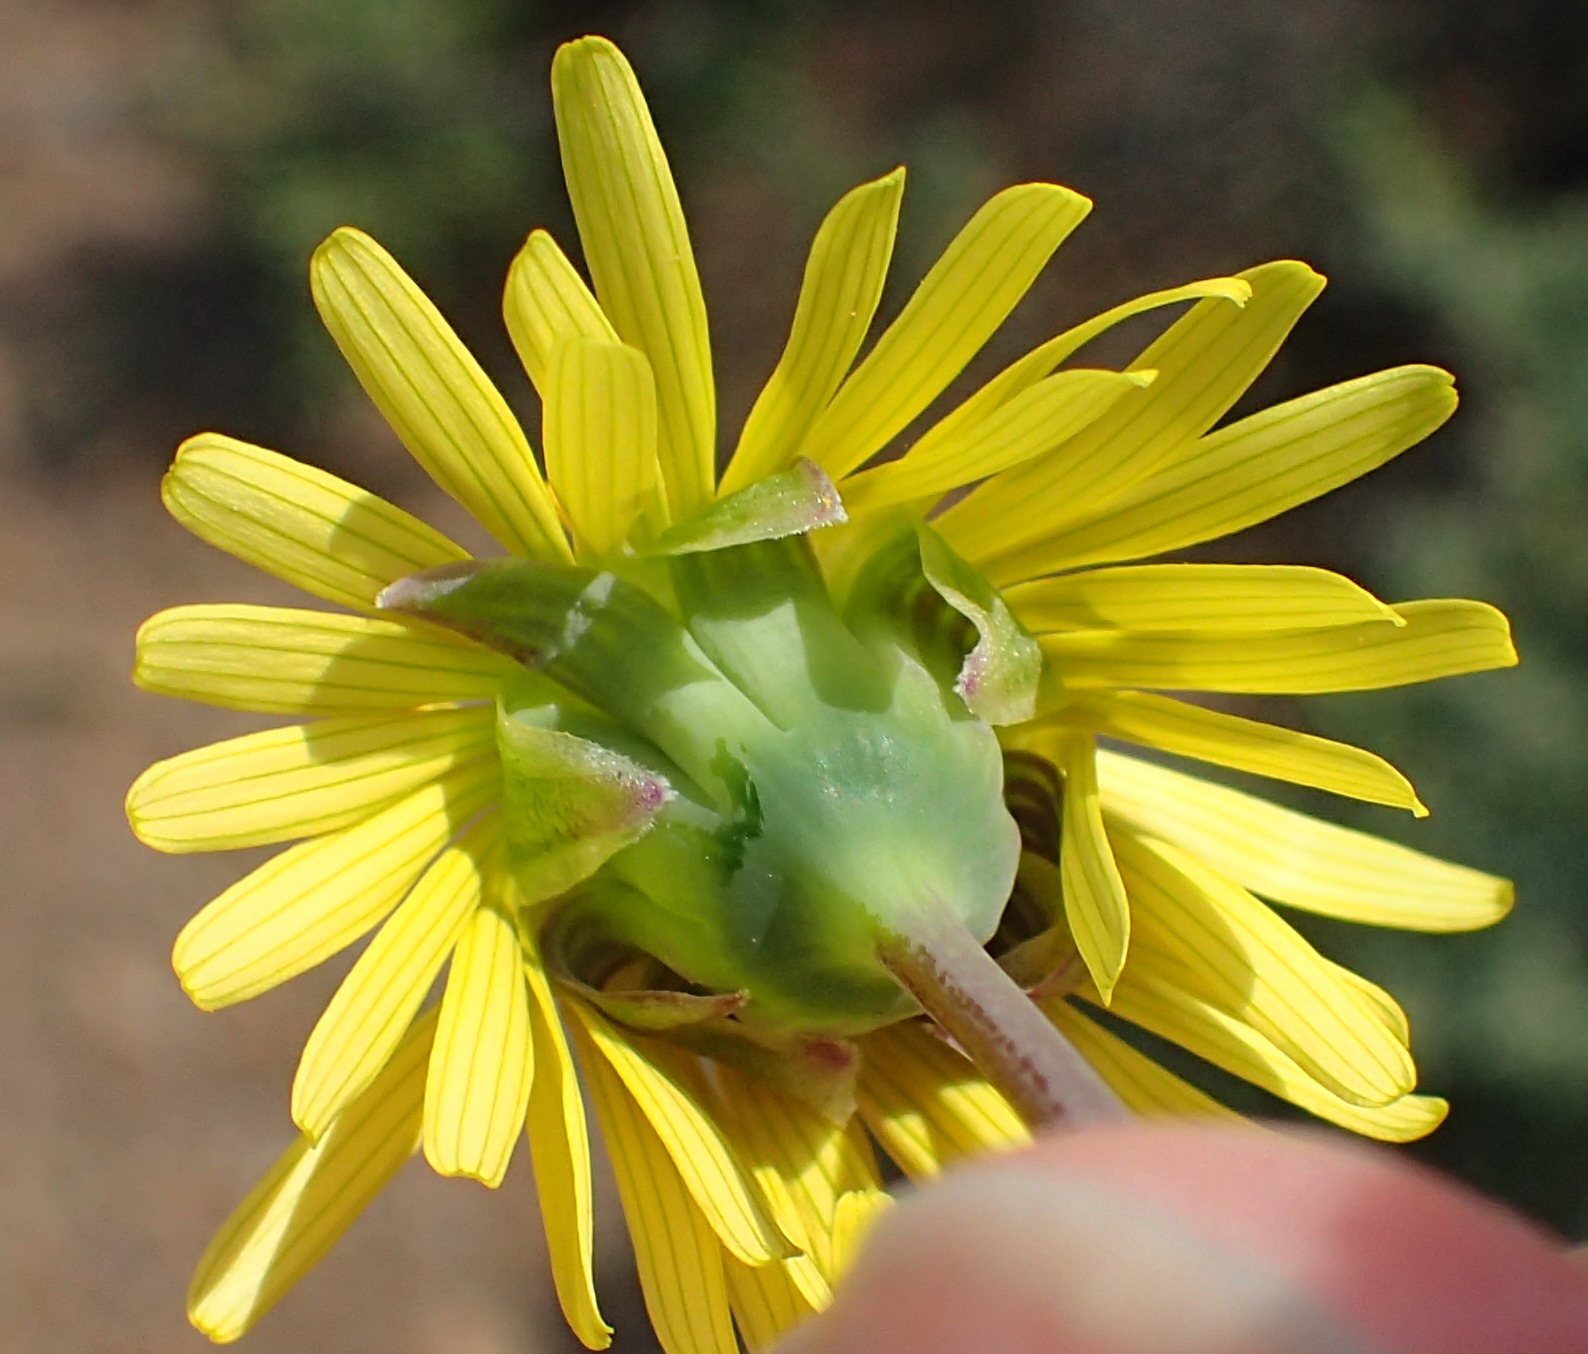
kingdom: Plantae
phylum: Tracheophyta
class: Magnoliopsida
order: Asterales
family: Asteraceae
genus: Crassothonna
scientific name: Crassothonna protecta
